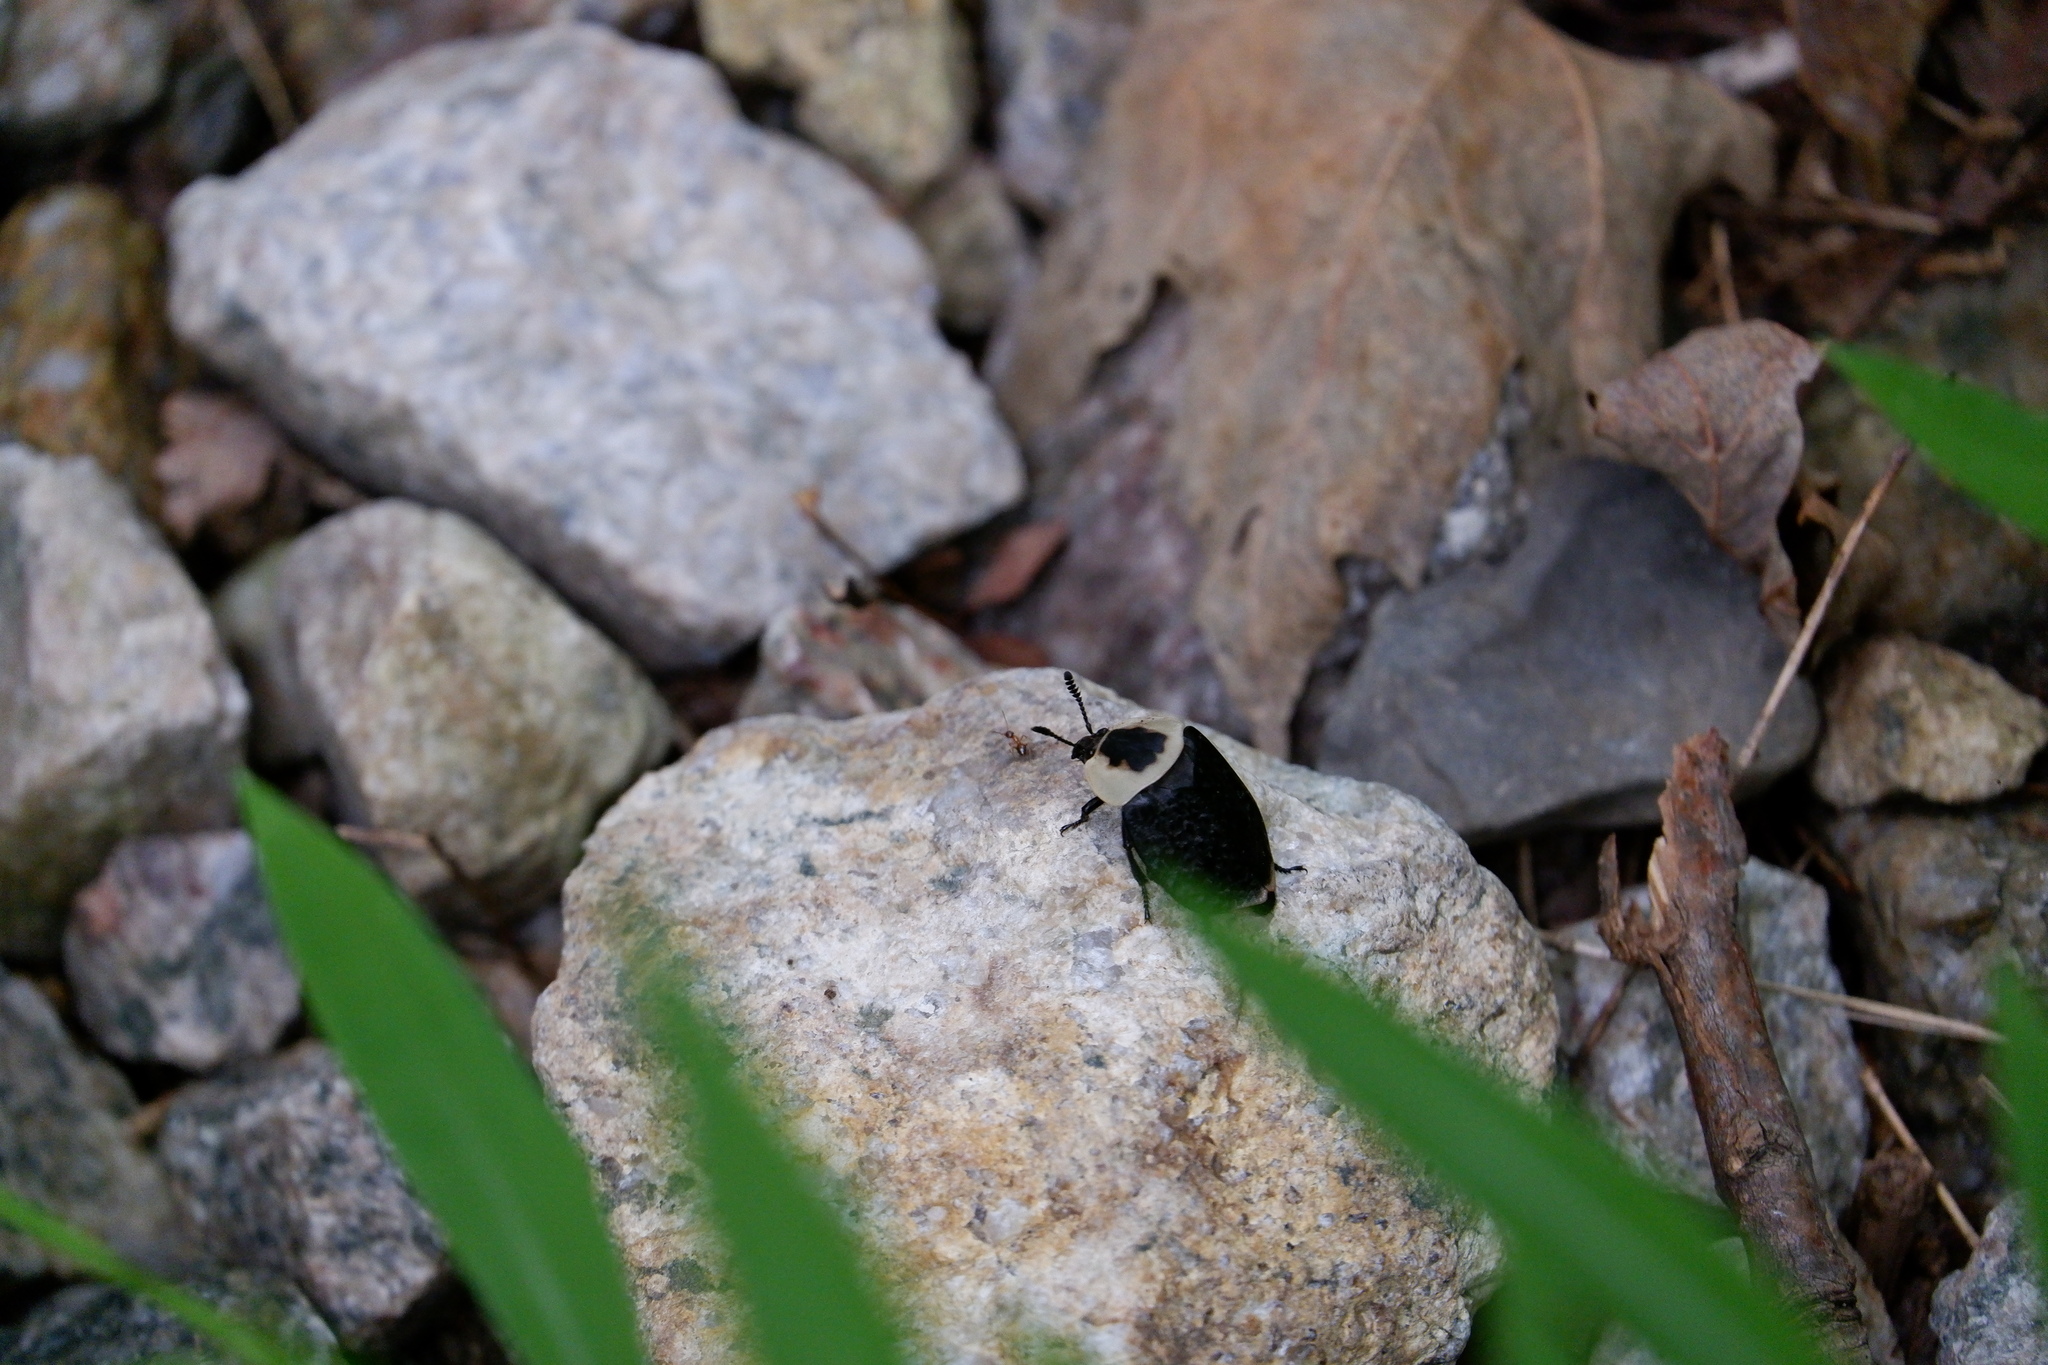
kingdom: Animalia
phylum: Arthropoda
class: Insecta
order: Coleoptera
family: Staphylinidae
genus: Necrophila
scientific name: Necrophila americana
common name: American carrion beetle
